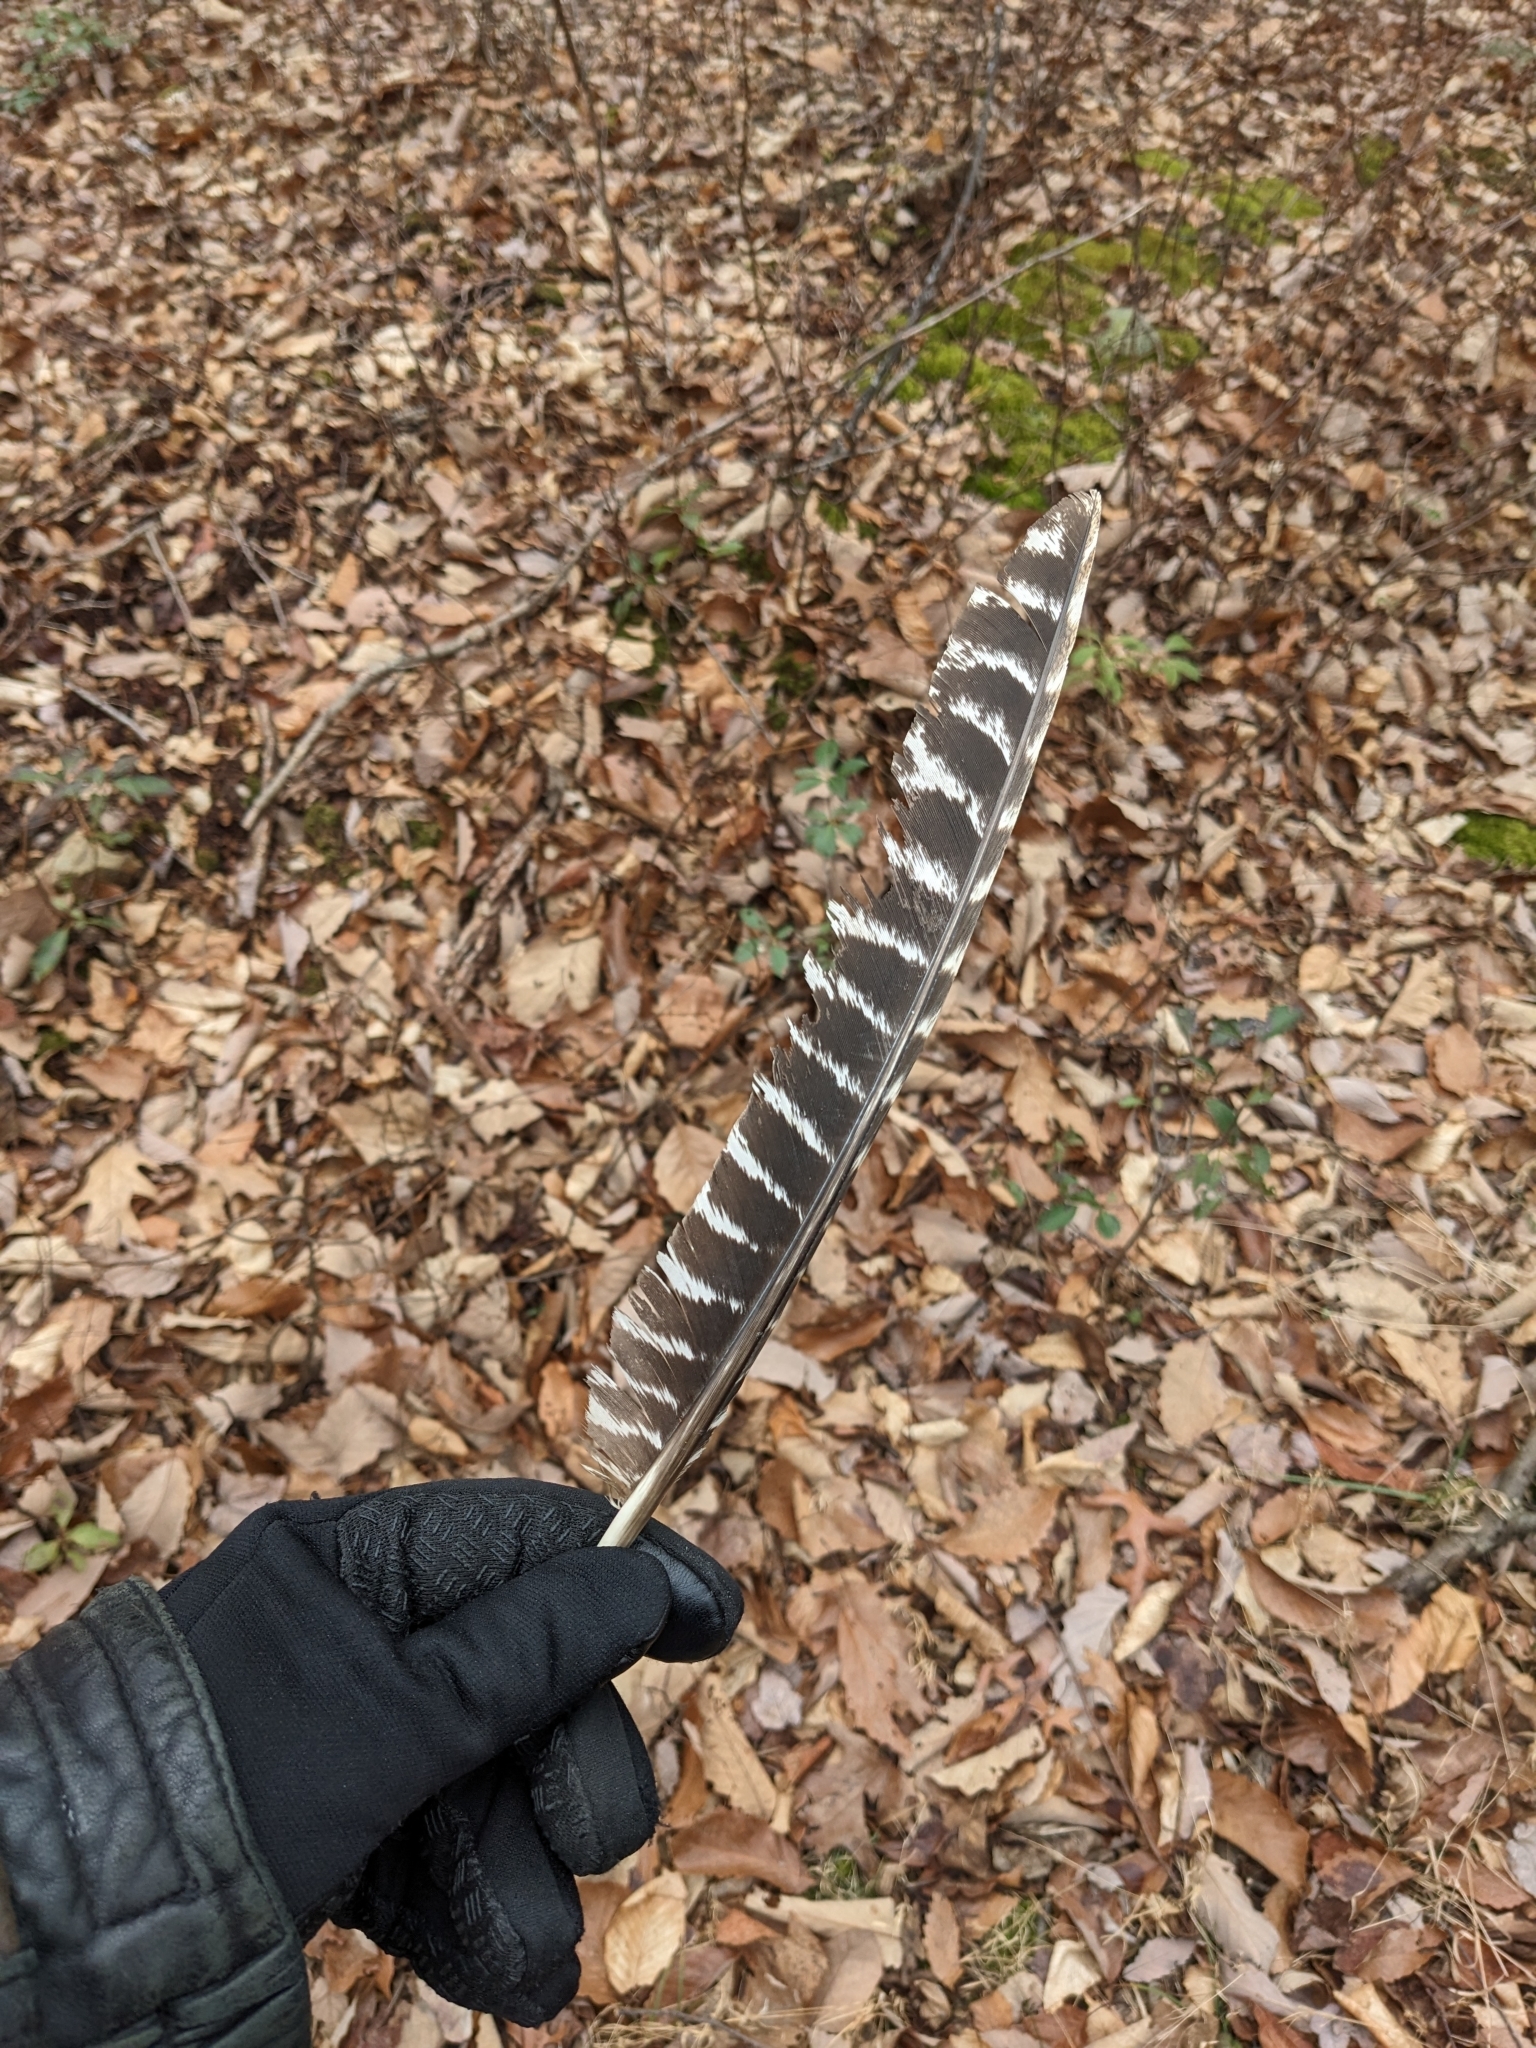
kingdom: Animalia
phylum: Chordata
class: Aves
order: Galliformes
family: Phasianidae
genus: Meleagris
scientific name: Meleagris gallopavo
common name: Wild turkey
